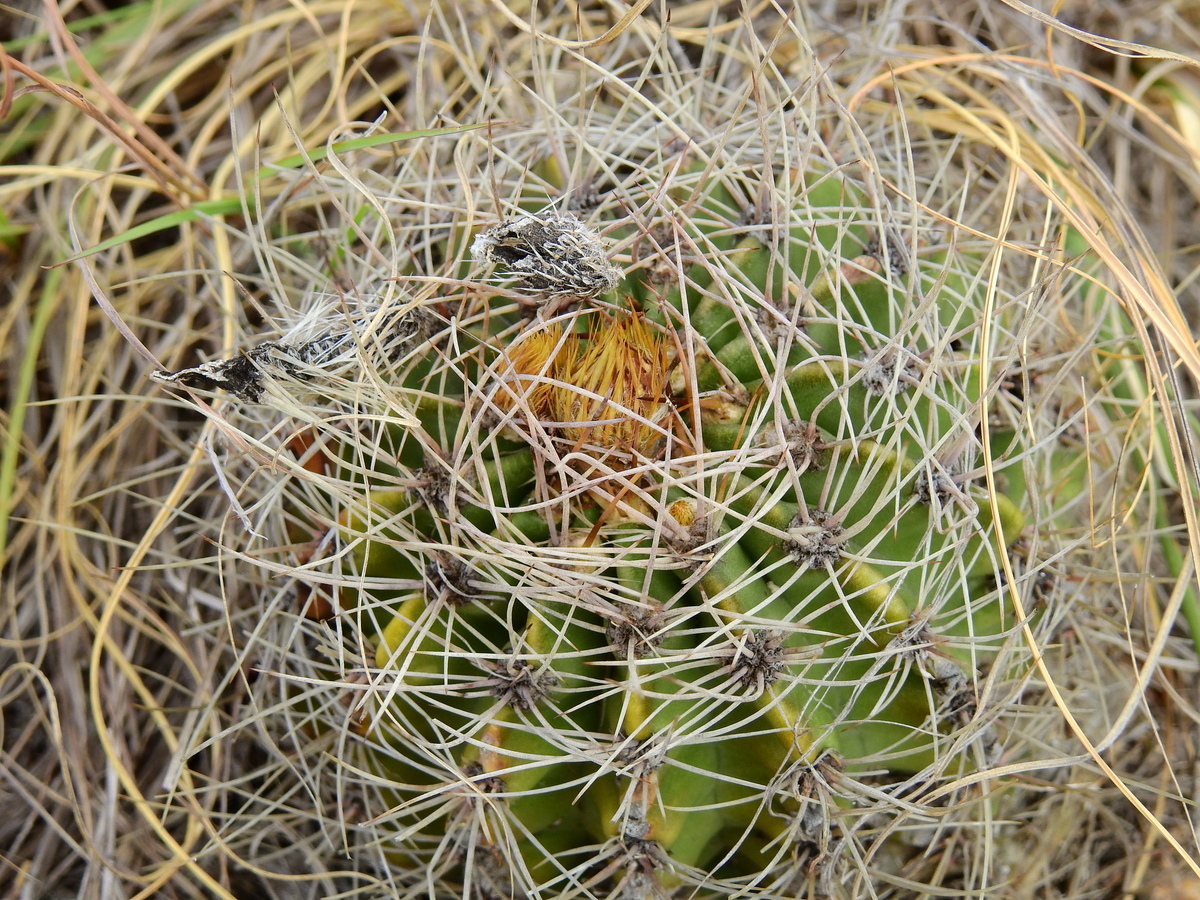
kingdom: Plantae
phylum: Tracheophyta
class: Magnoliopsida
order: Caryophyllales
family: Cactaceae
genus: Acanthocalycium
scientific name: Acanthocalycium spiniflorum
